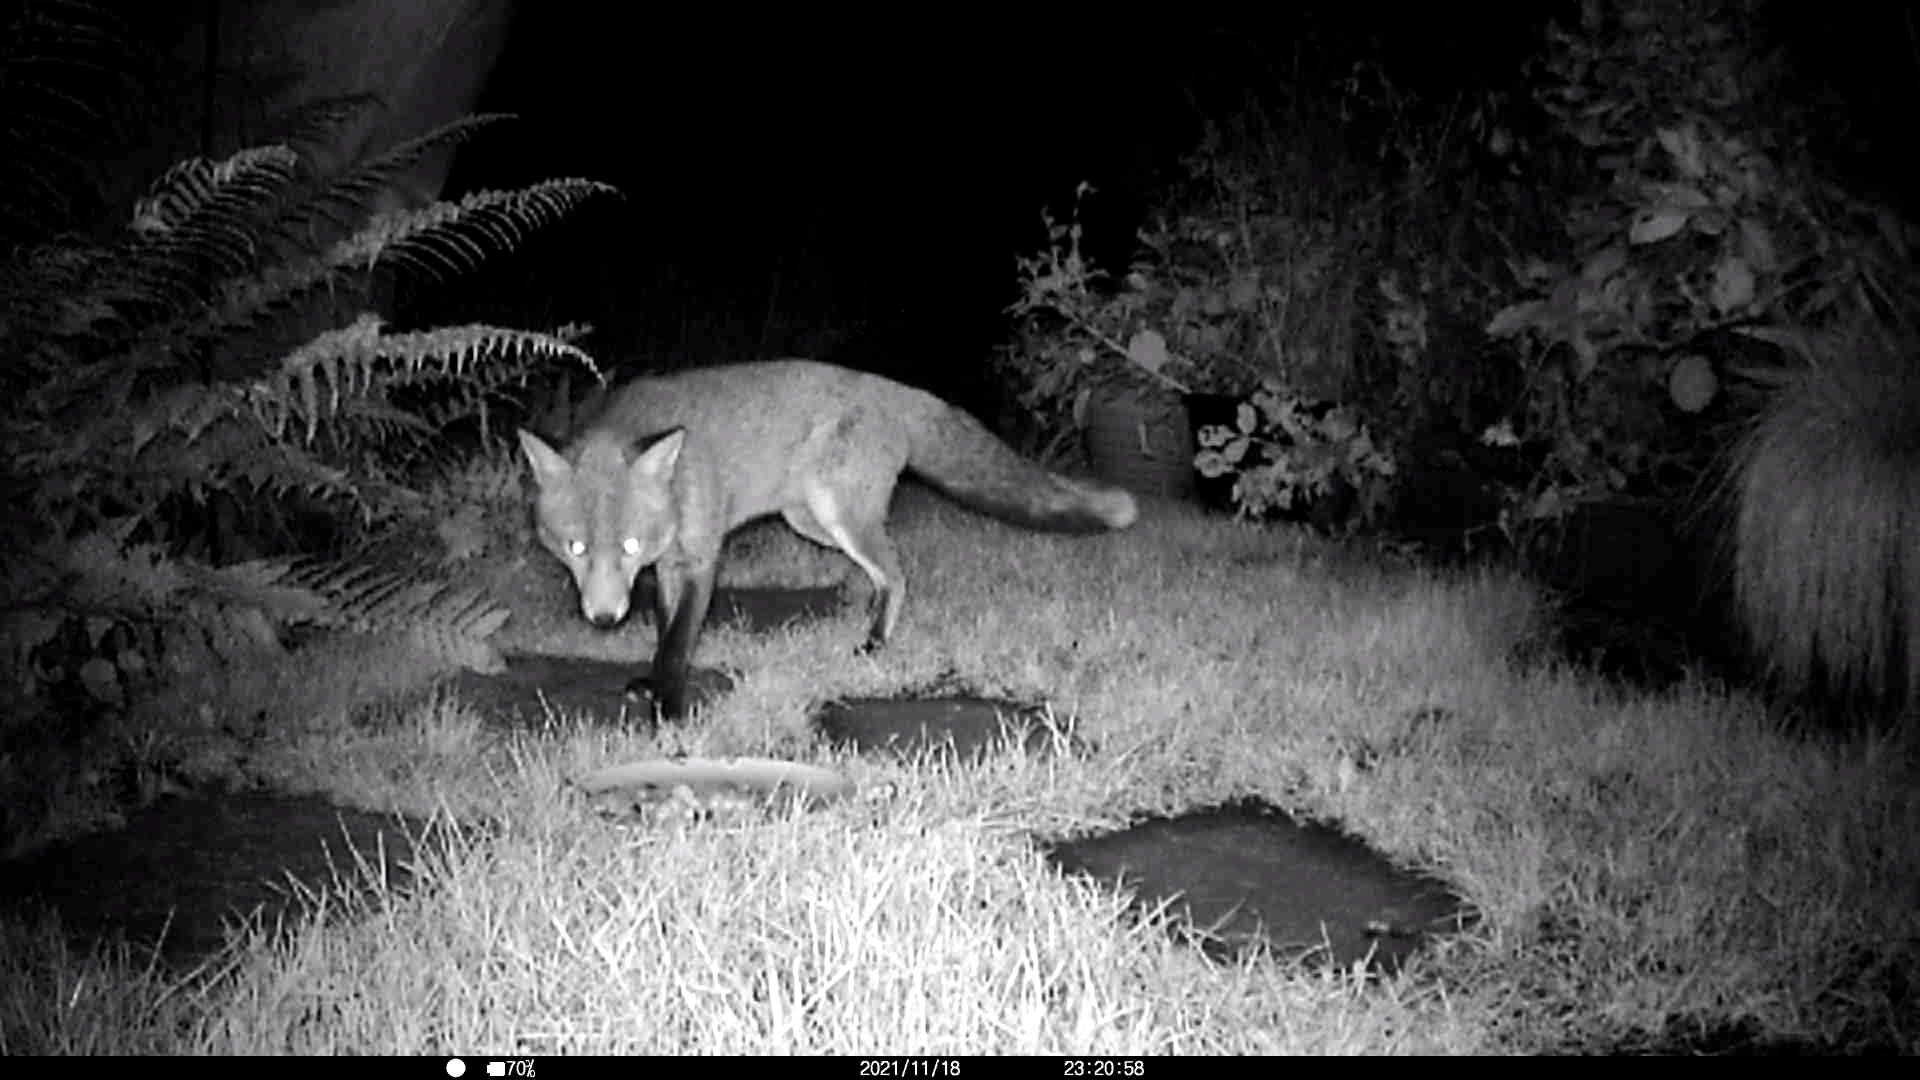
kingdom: Animalia
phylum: Chordata
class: Mammalia
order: Carnivora
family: Canidae
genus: Vulpes
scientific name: Vulpes vulpes
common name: Red fox
